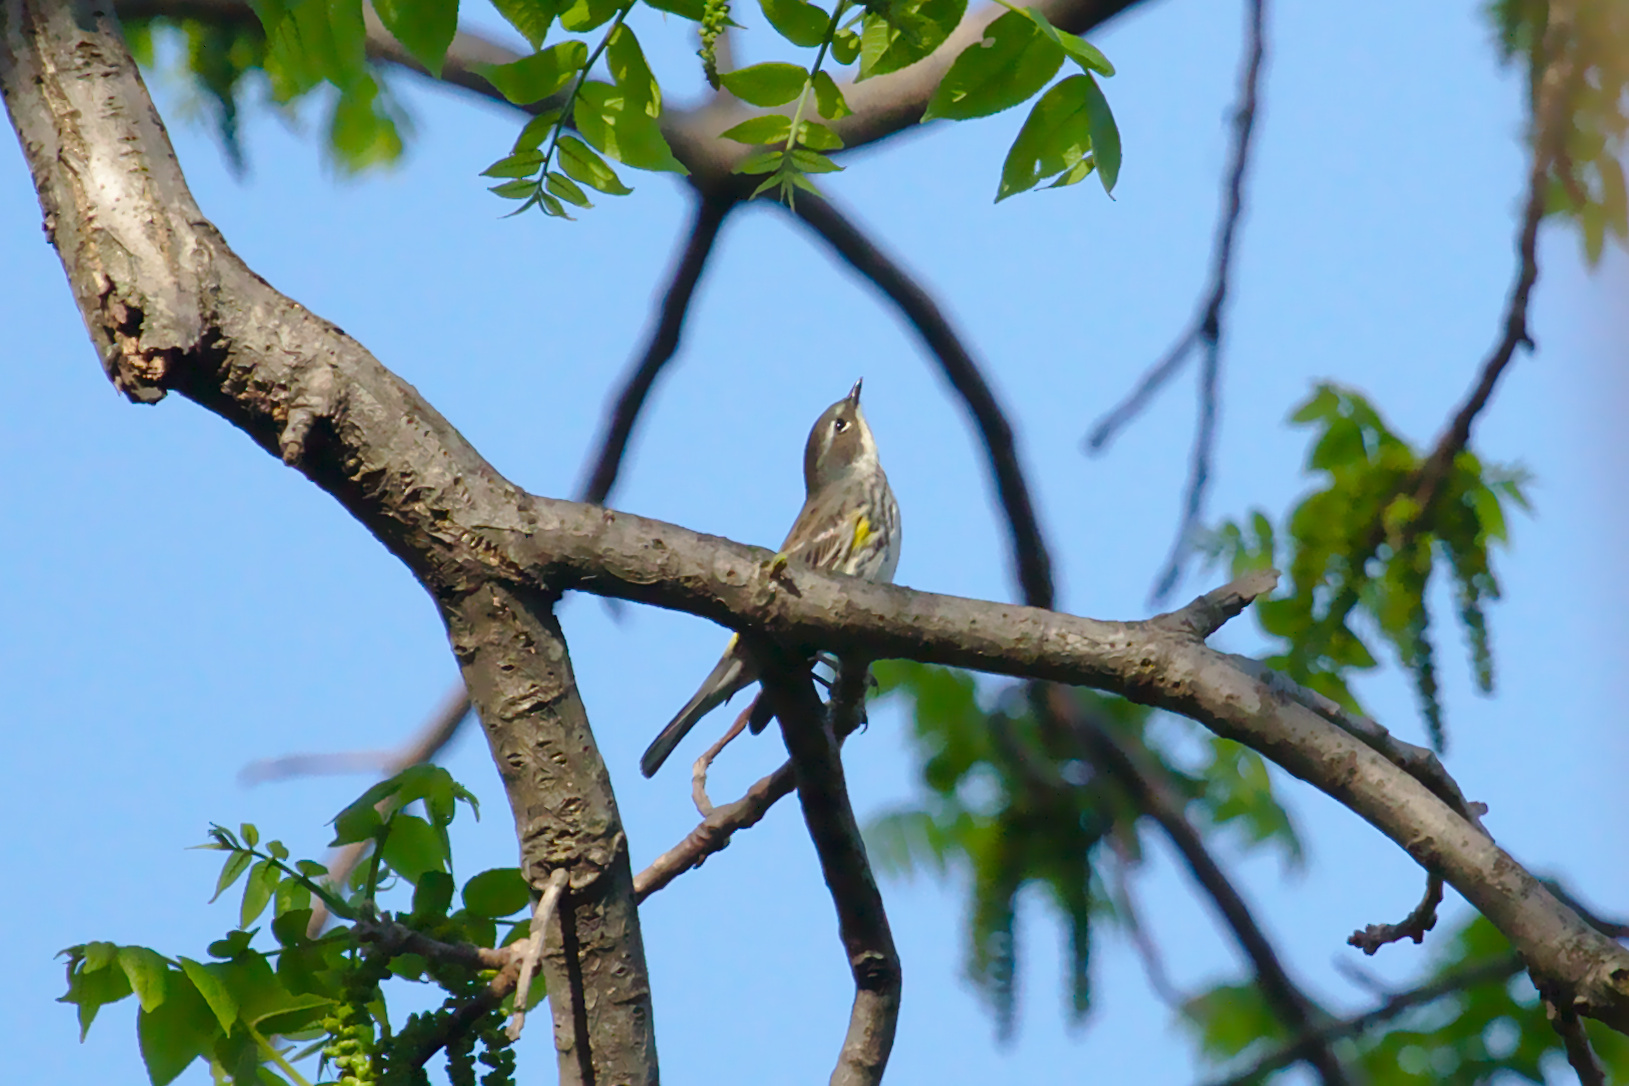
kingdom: Animalia
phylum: Chordata
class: Aves
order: Passeriformes
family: Parulidae
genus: Setophaga
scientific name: Setophaga coronata
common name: Myrtle warbler
